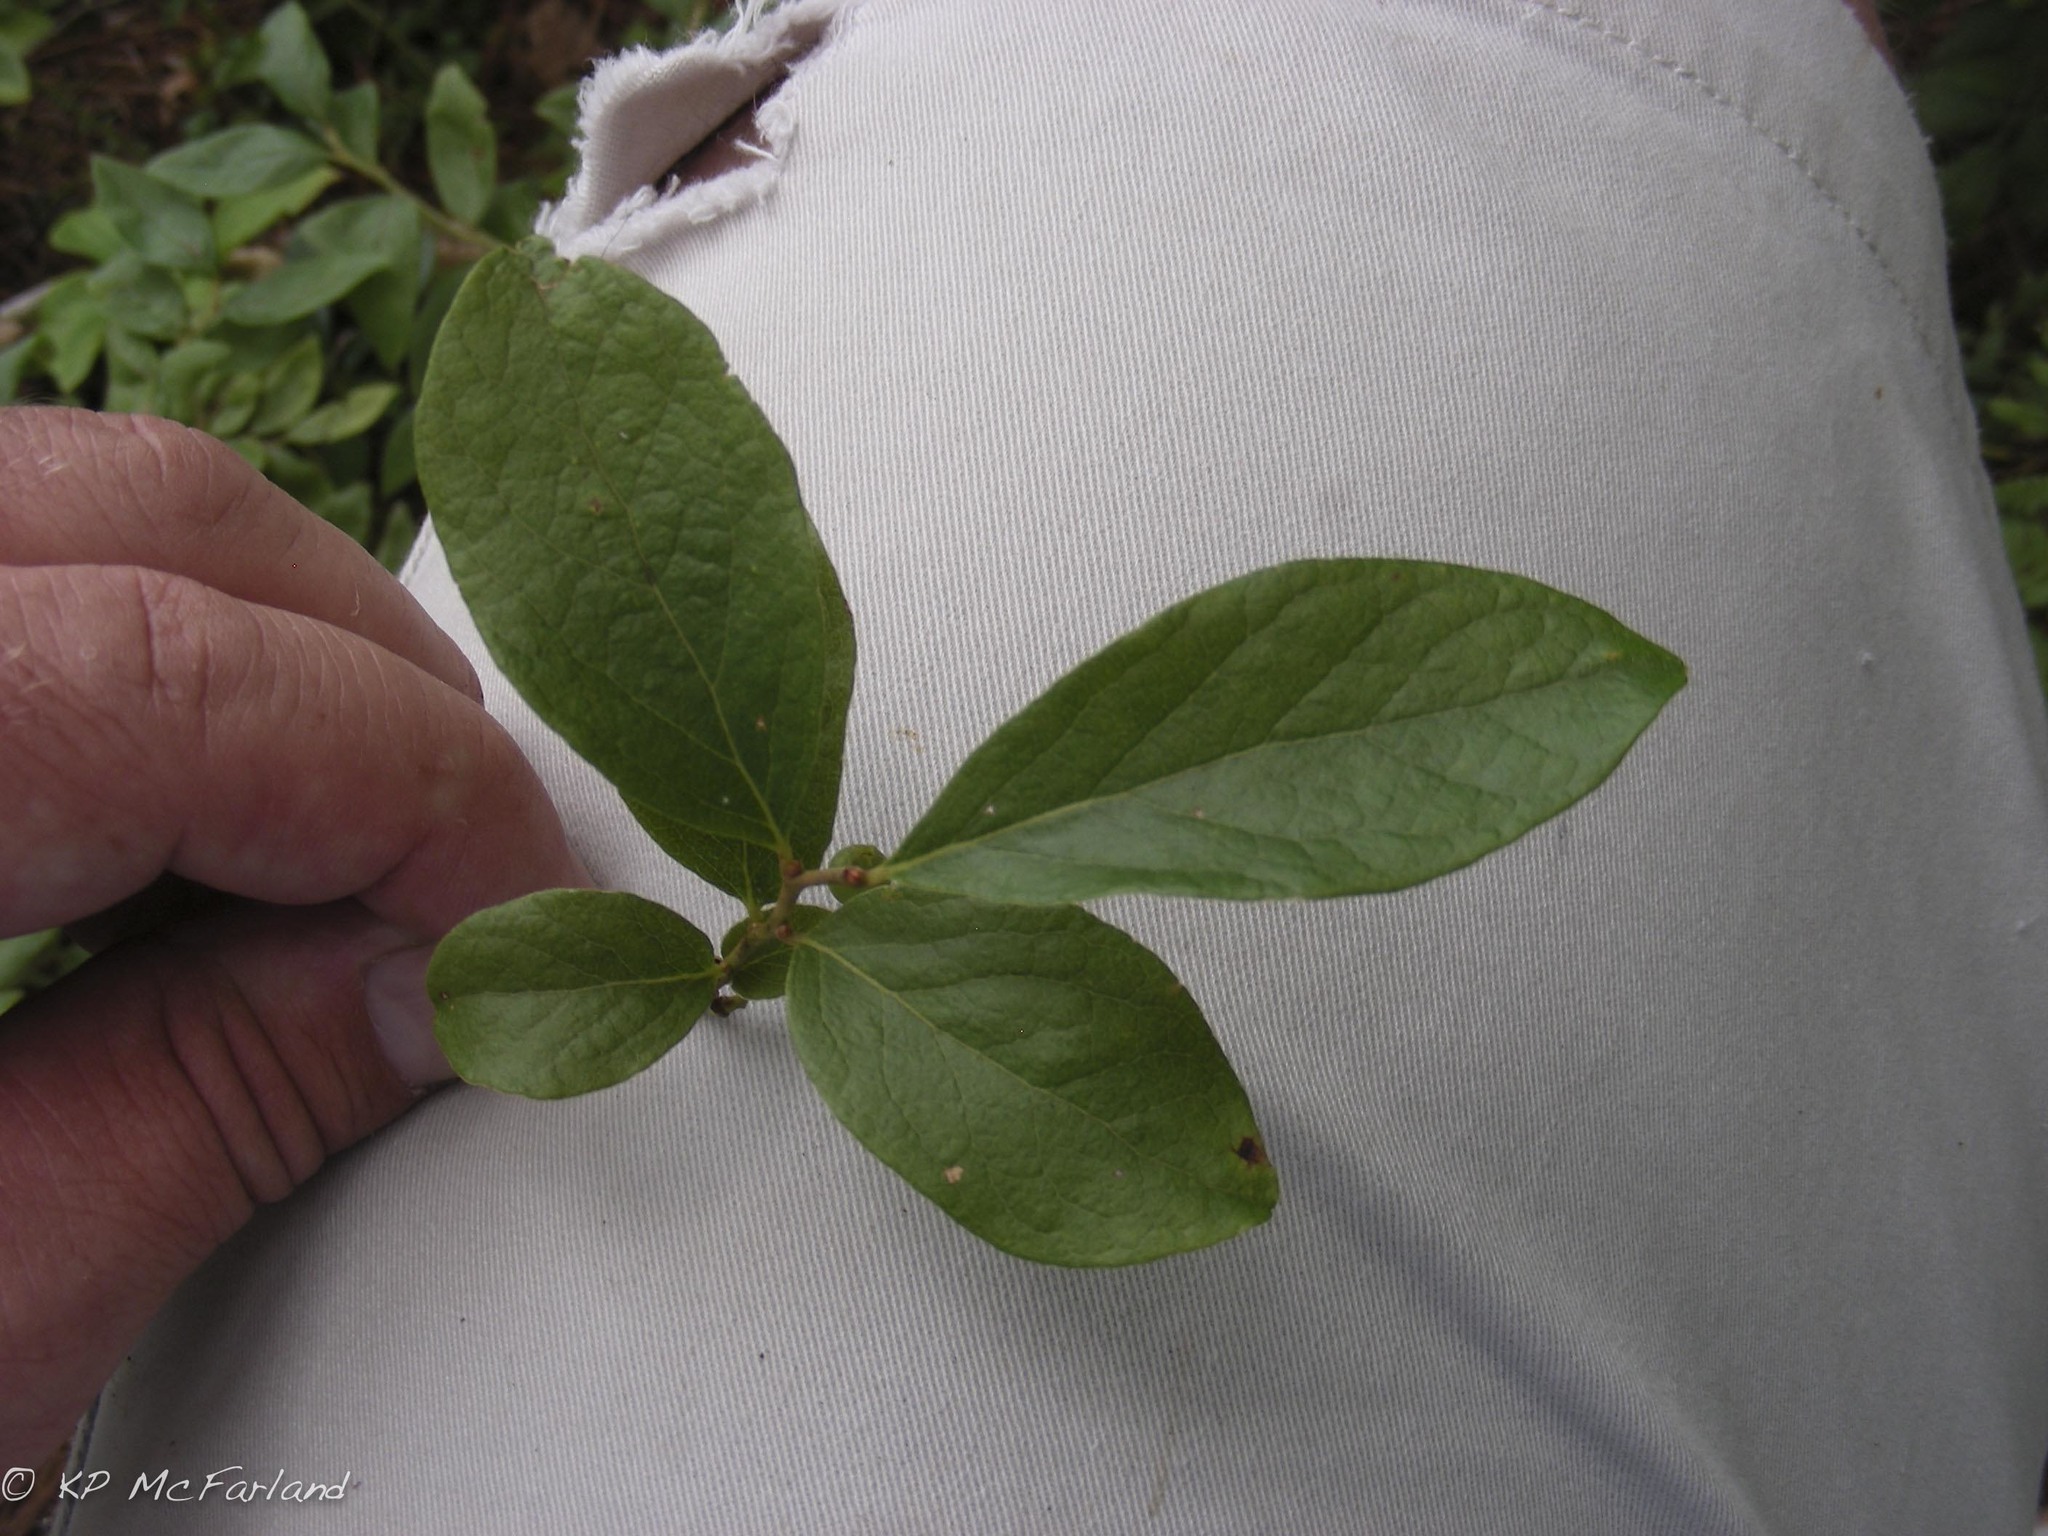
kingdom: Plantae
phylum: Tracheophyta
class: Magnoliopsida
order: Ericales
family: Ericaceae
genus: Gaylussacia
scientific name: Gaylussacia baccata
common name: Black huckleberry
